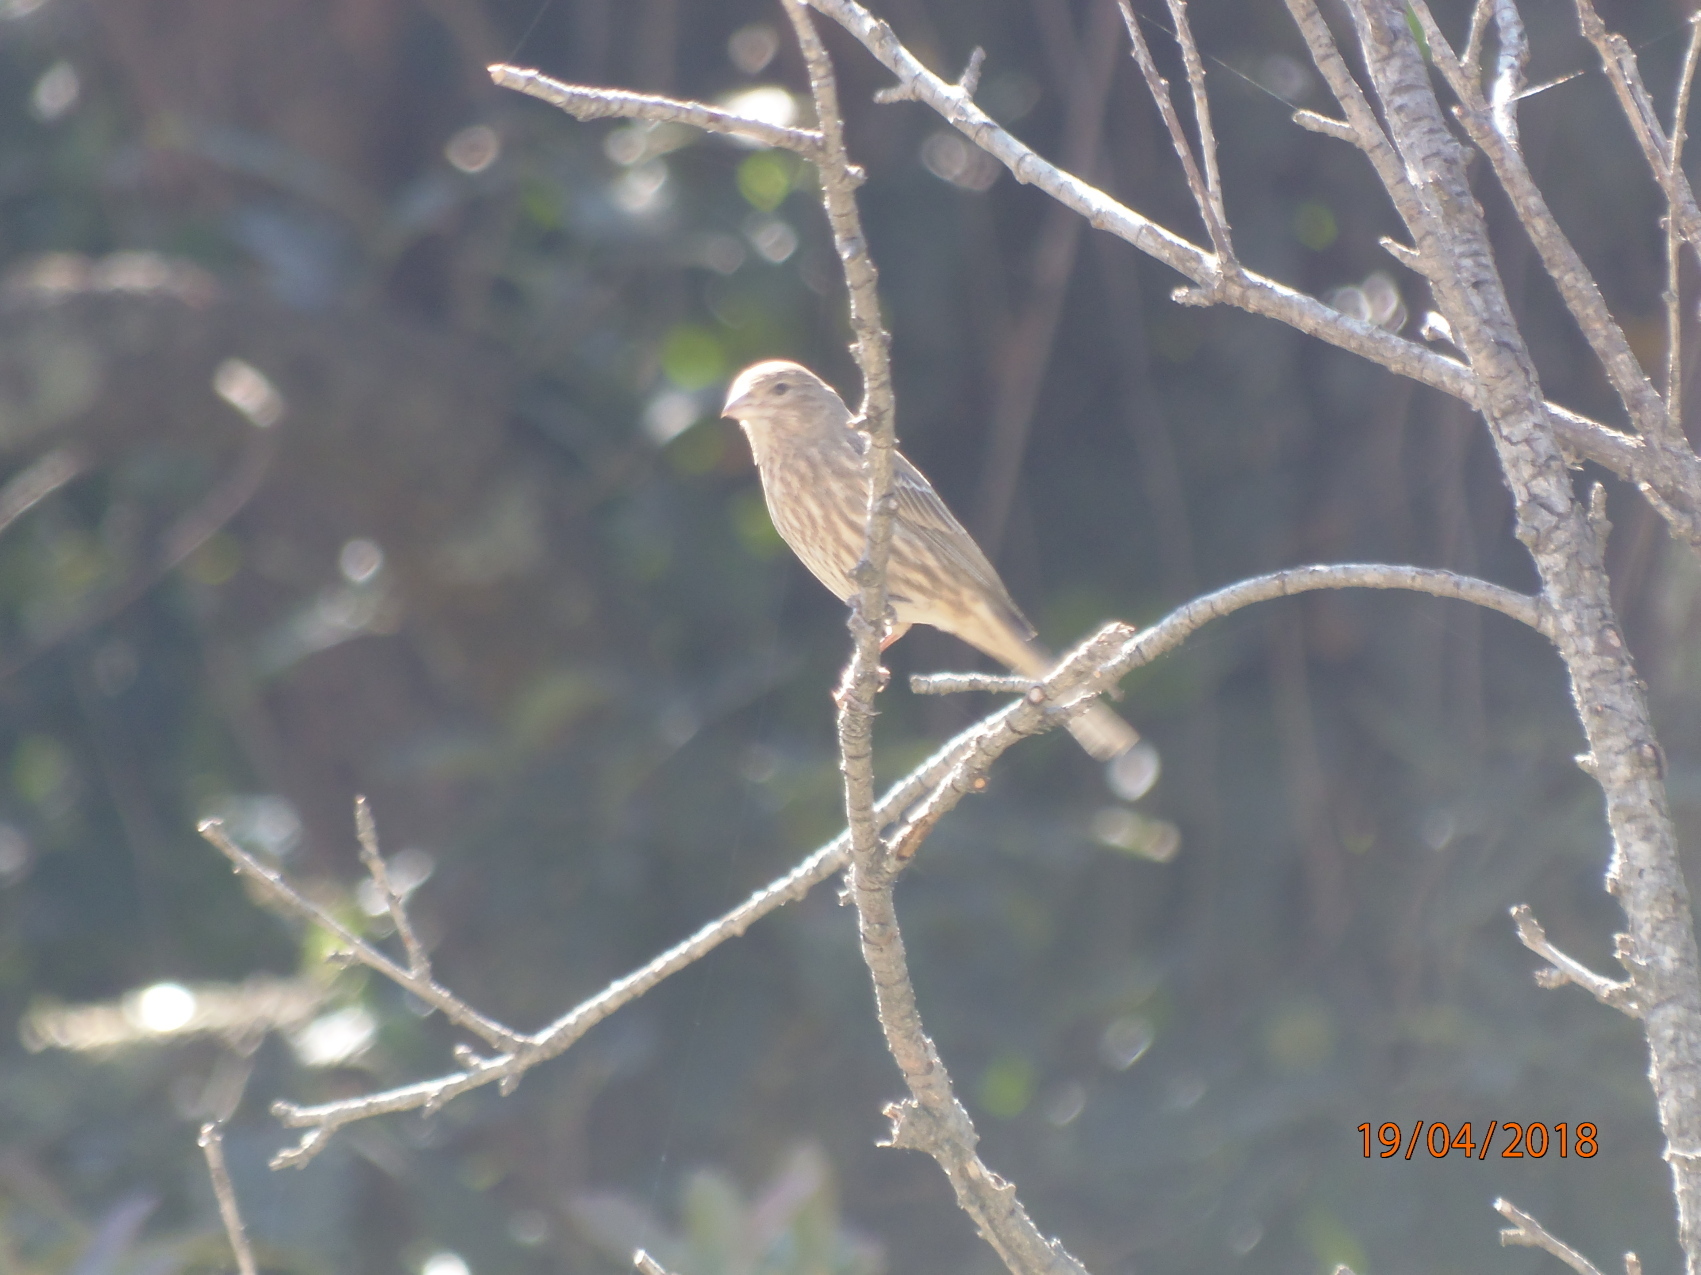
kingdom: Animalia
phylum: Chordata
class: Aves
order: Passeriformes
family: Fringillidae
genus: Haemorhous
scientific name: Haemorhous mexicanus
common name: House finch
